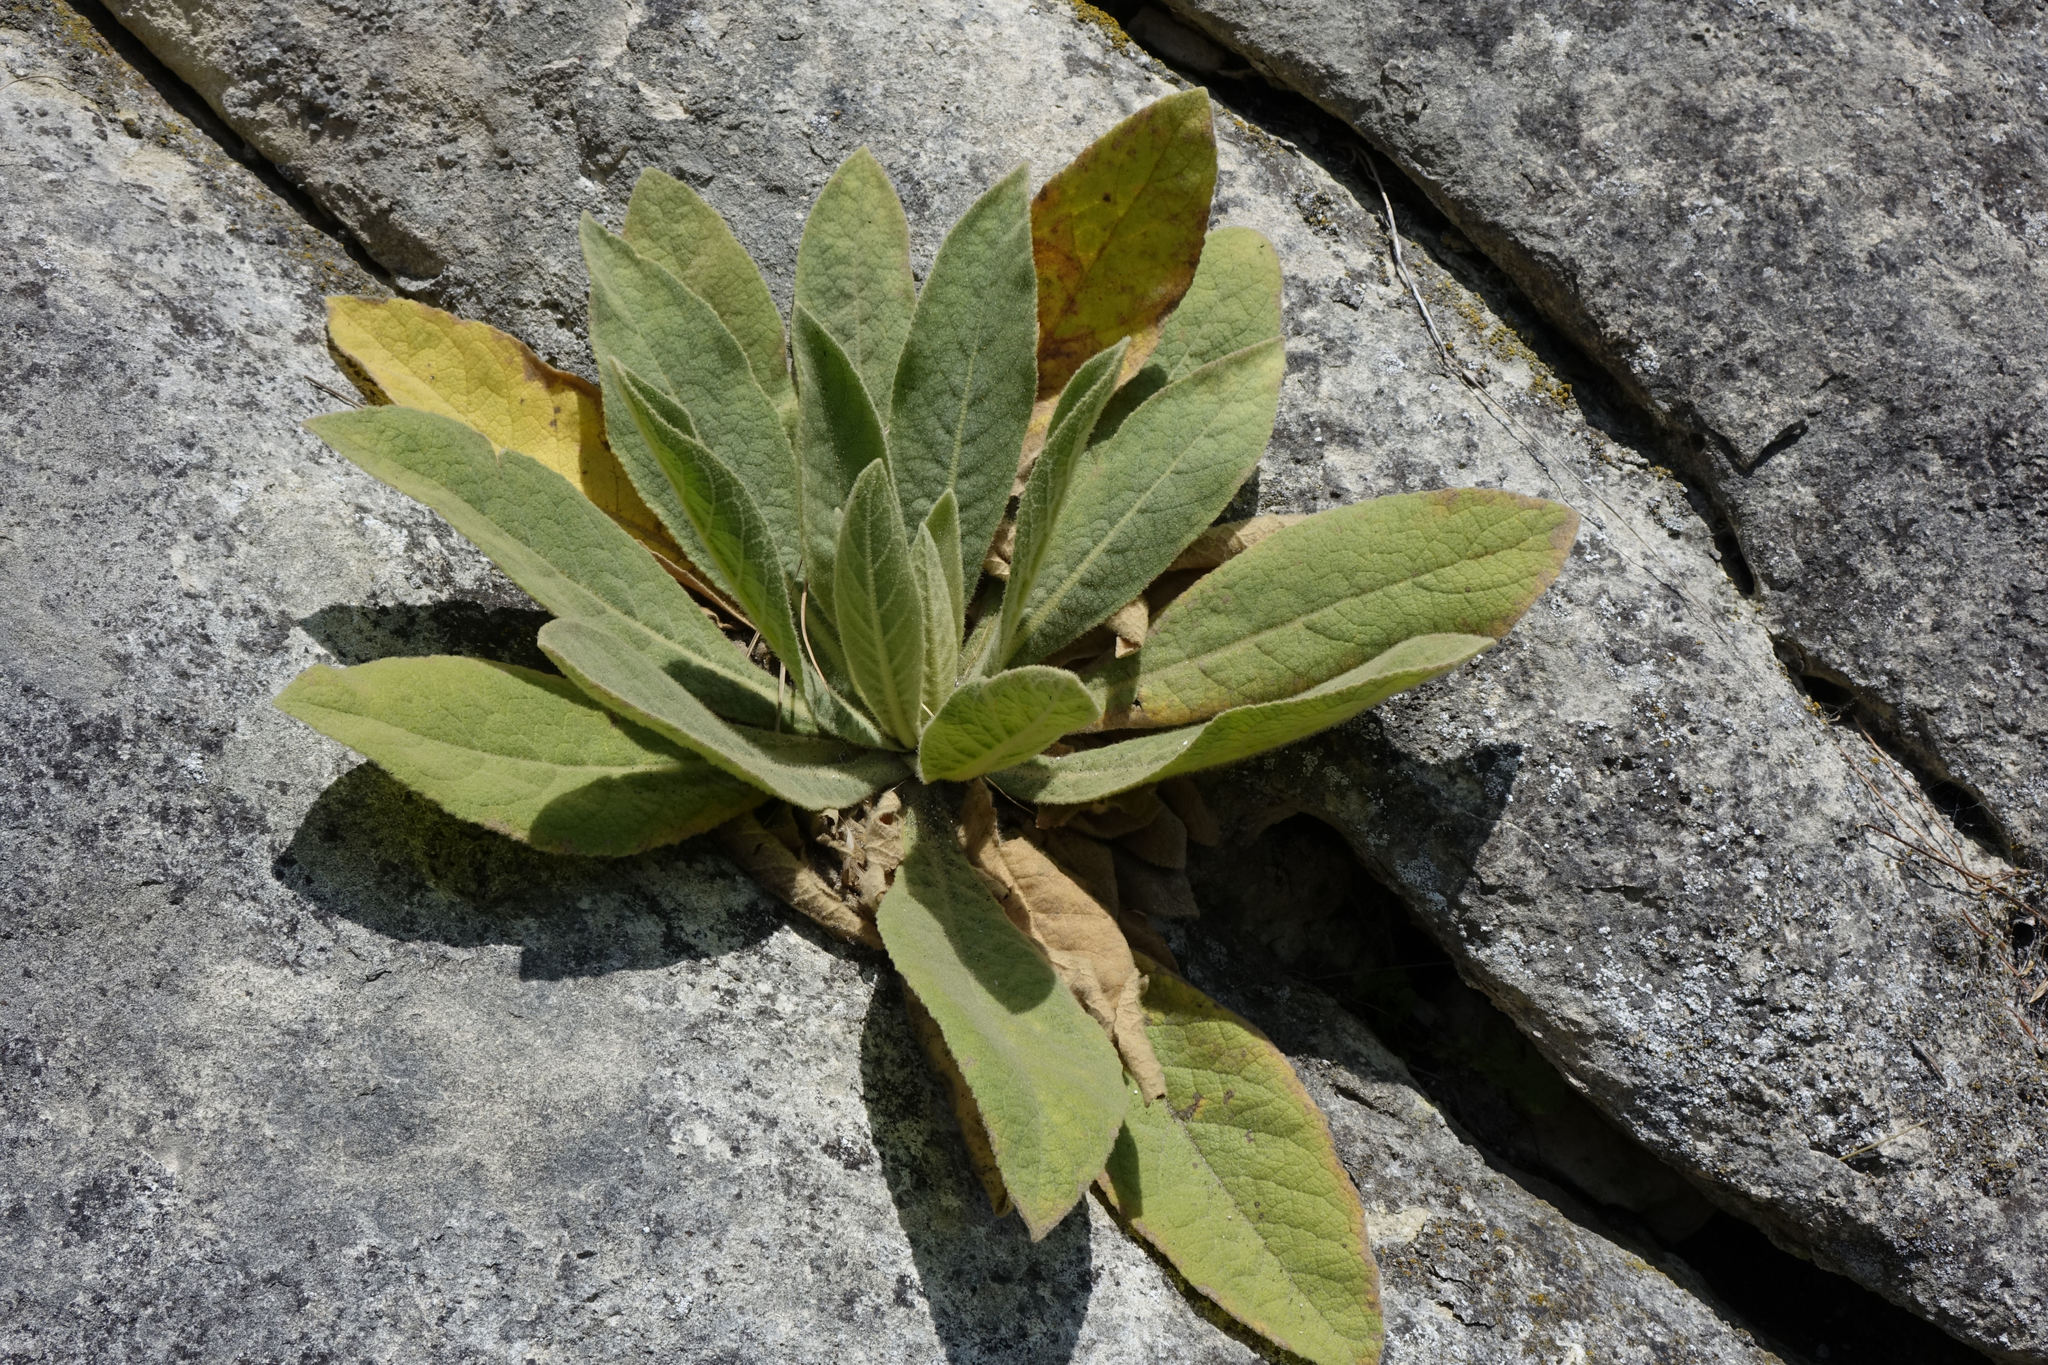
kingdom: Plantae
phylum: Tracheophyta
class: Magnoliopsida
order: Lamiales
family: Scrophulariaceae
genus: Verbascum
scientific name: Verbascum thapsus
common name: Common mullein
